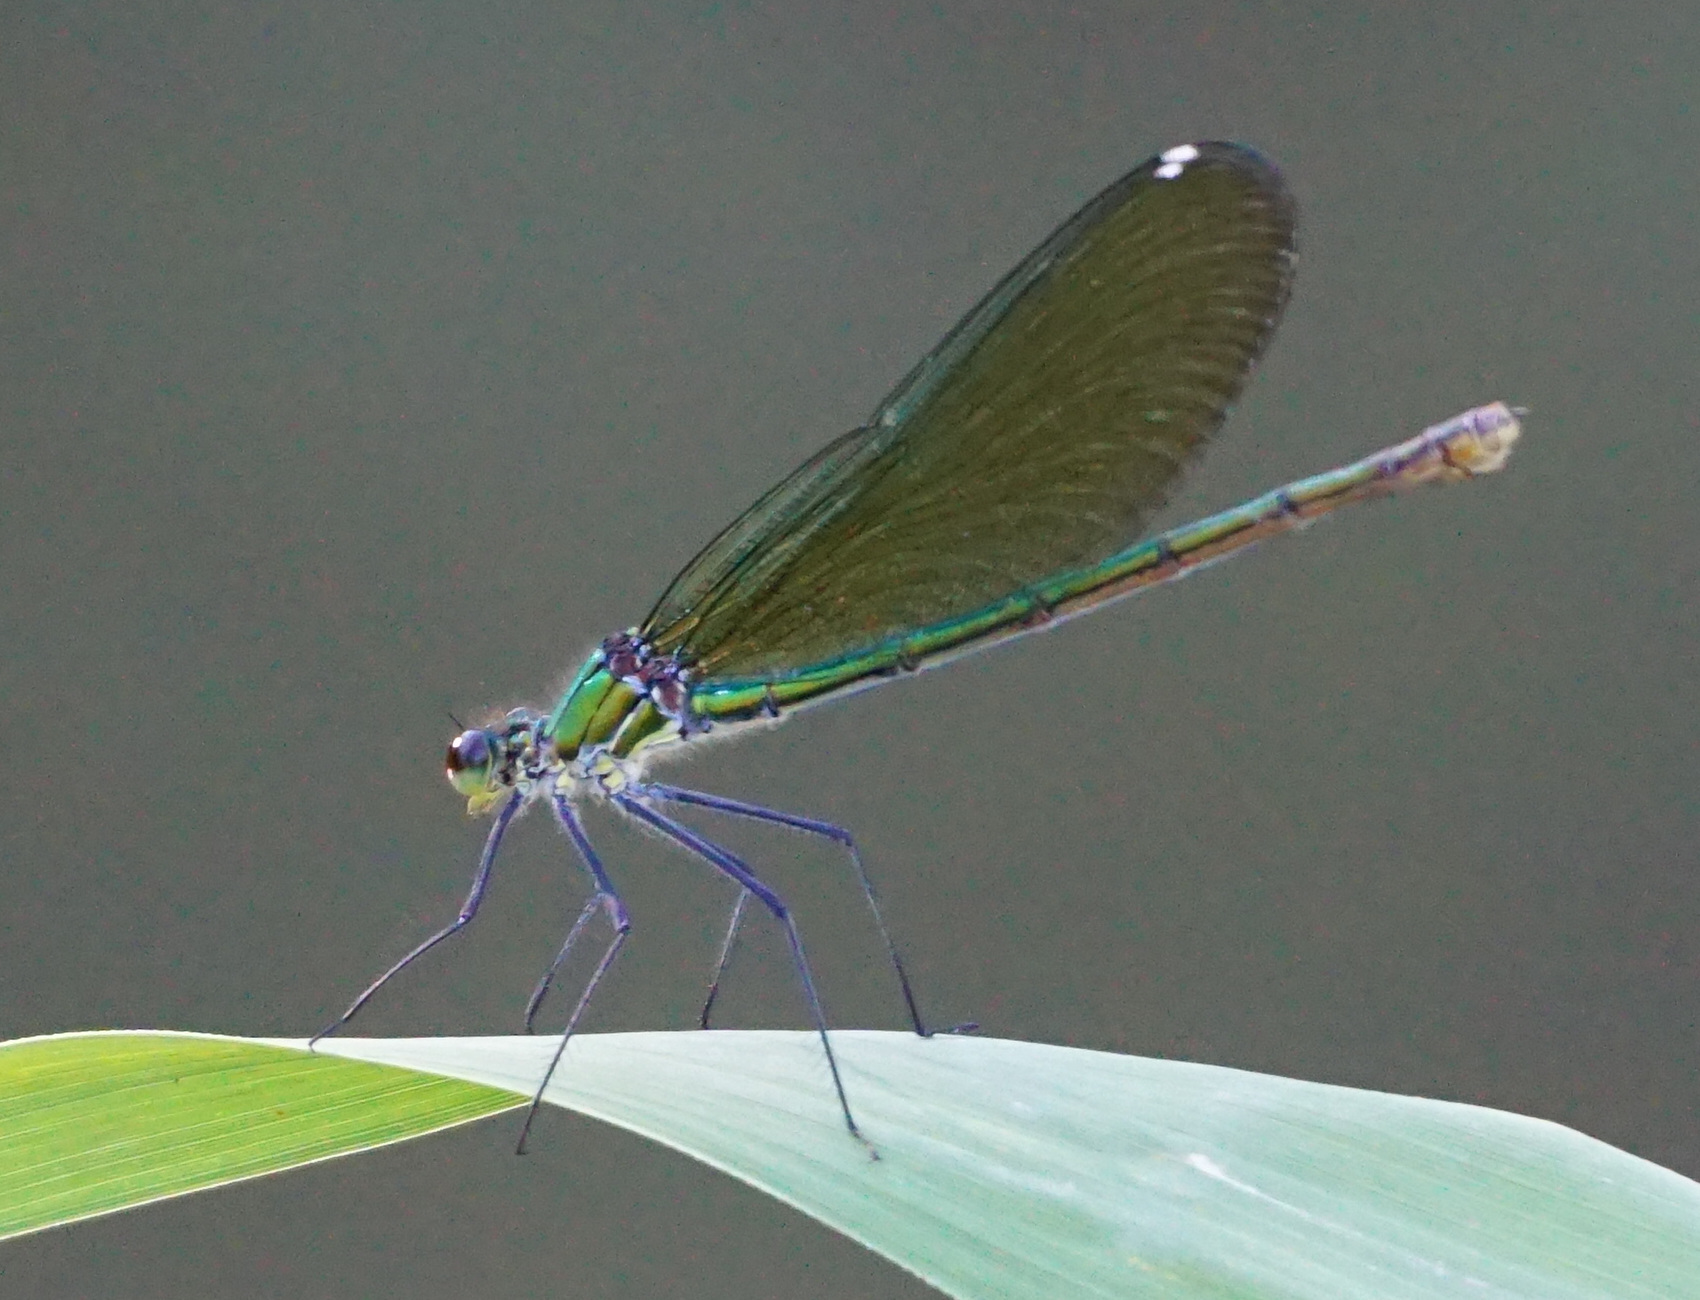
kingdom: Animalia
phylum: Arthropoda
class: Insecta
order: Odonata
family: Calopterygidae
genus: Calopteryx
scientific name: Calopteryx splendens
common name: Banded demoiselle
